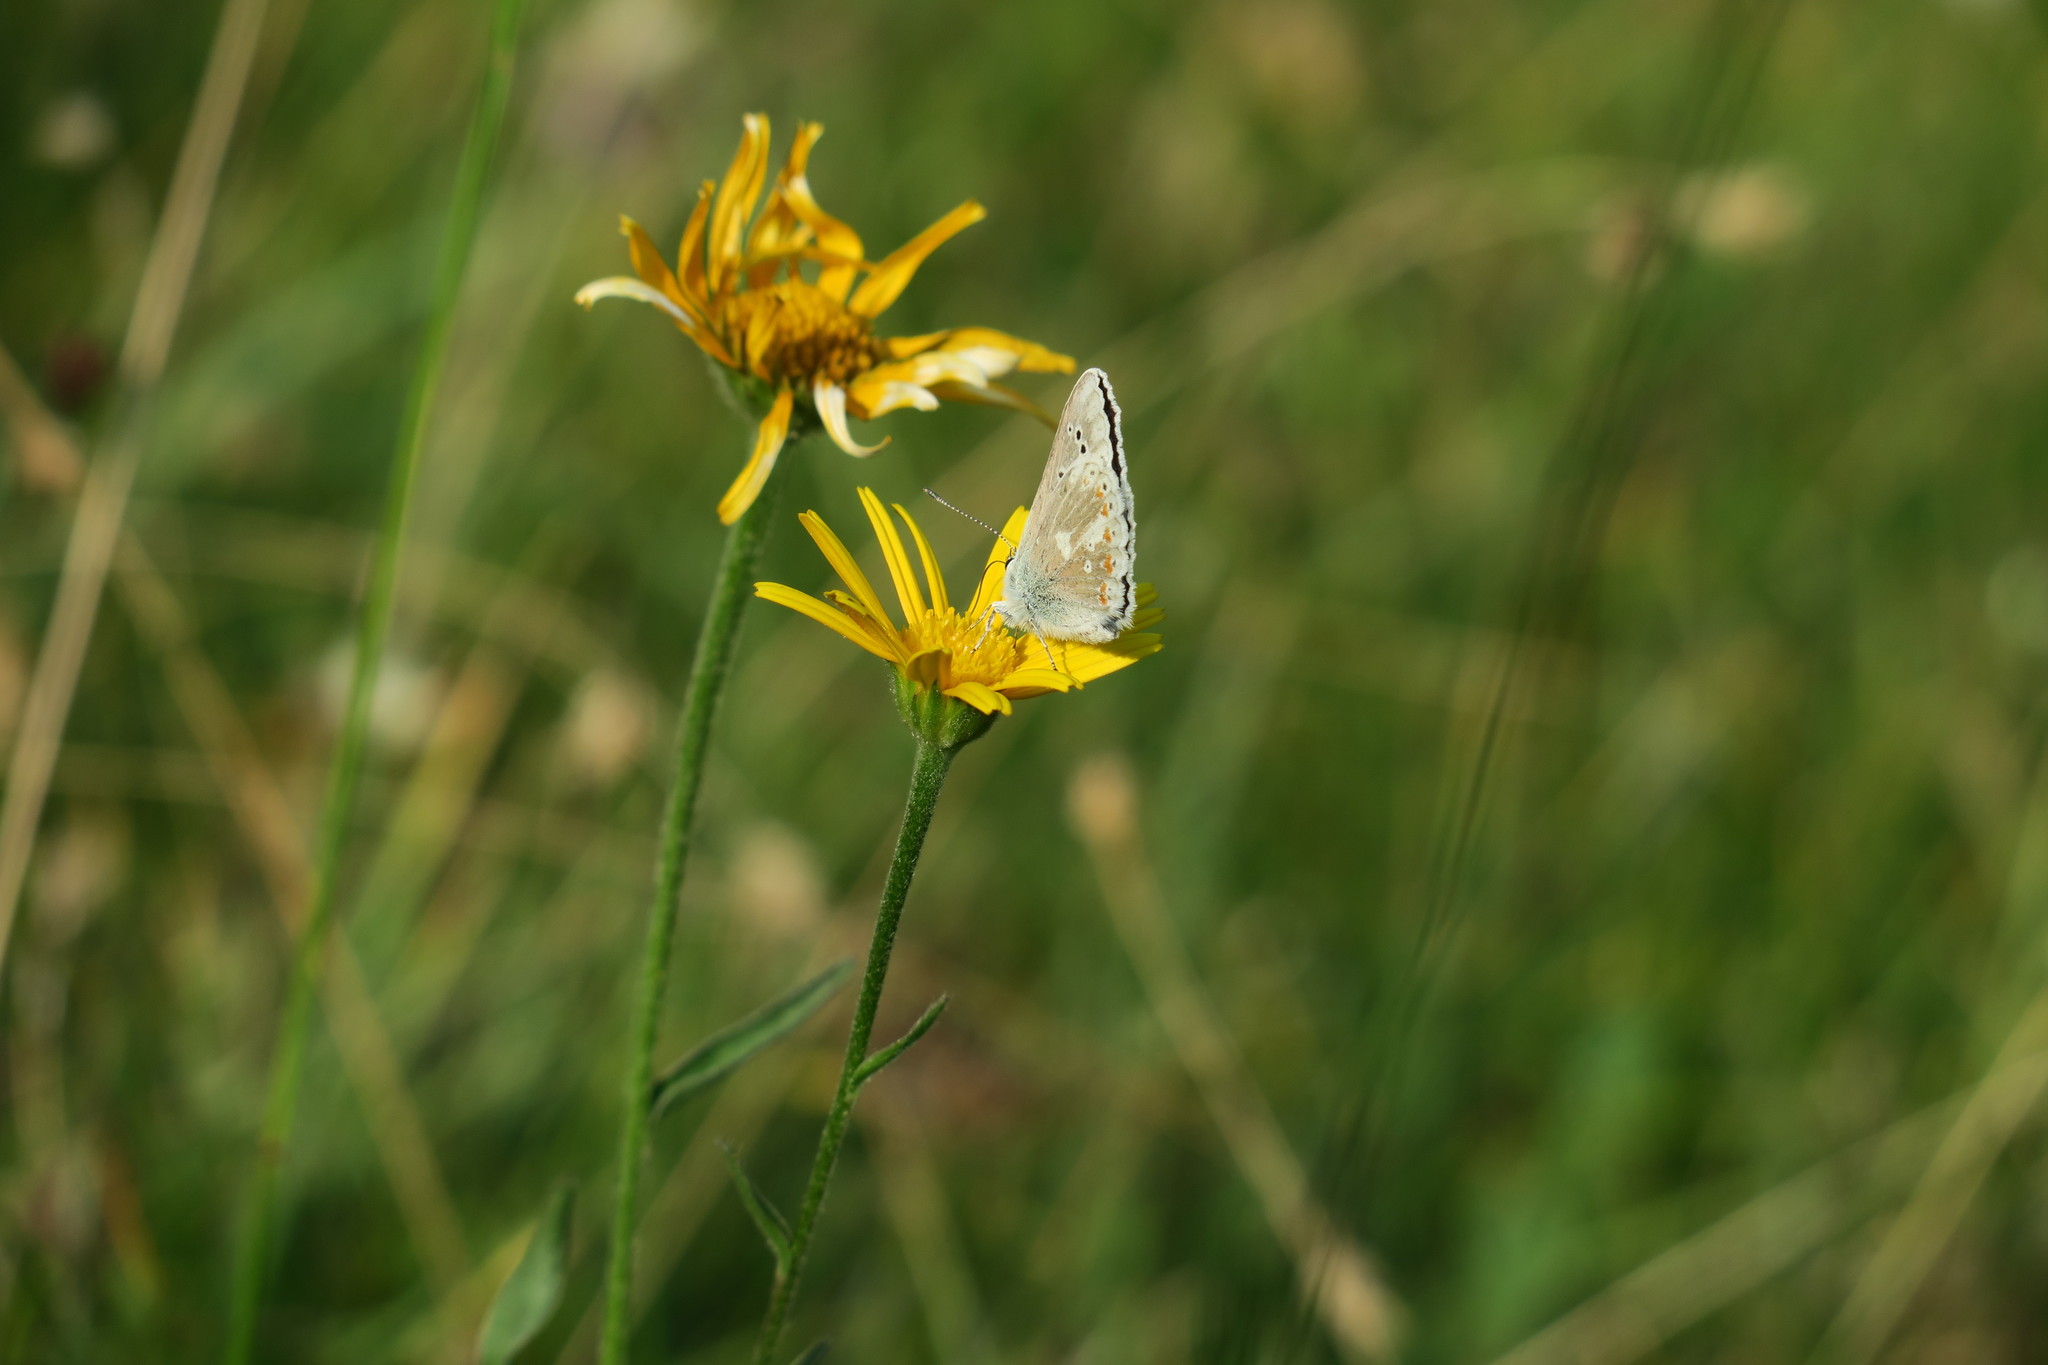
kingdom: Animalia
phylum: Arthropoda
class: Insecta
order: Lepidoptera
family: Lycaenidae
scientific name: Lycaenidae
